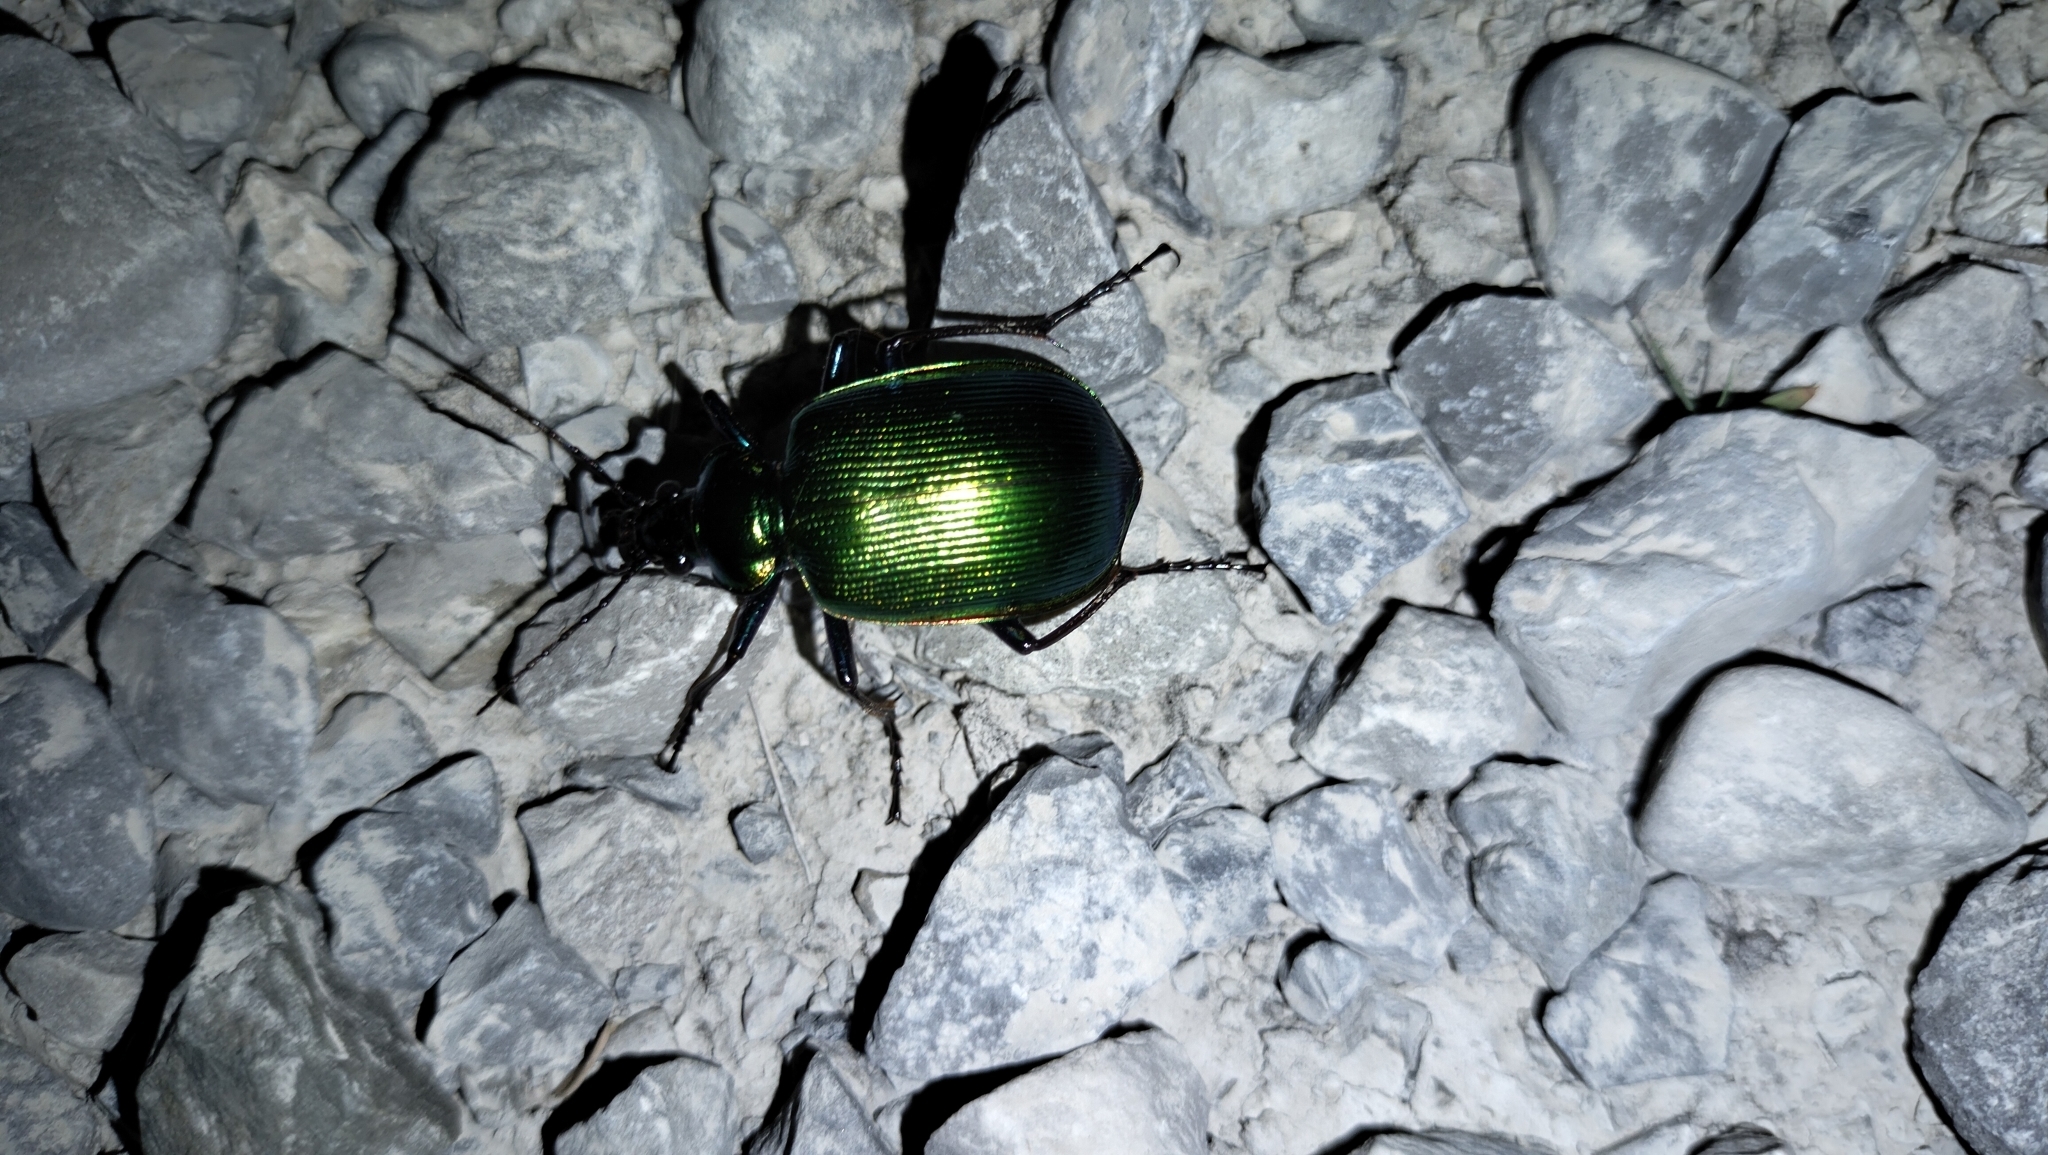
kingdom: Animalia
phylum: Arthropoda
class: Insecta
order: Coleoptera
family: Carabidae
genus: Calosoma
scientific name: Calosoma aurocinctum
